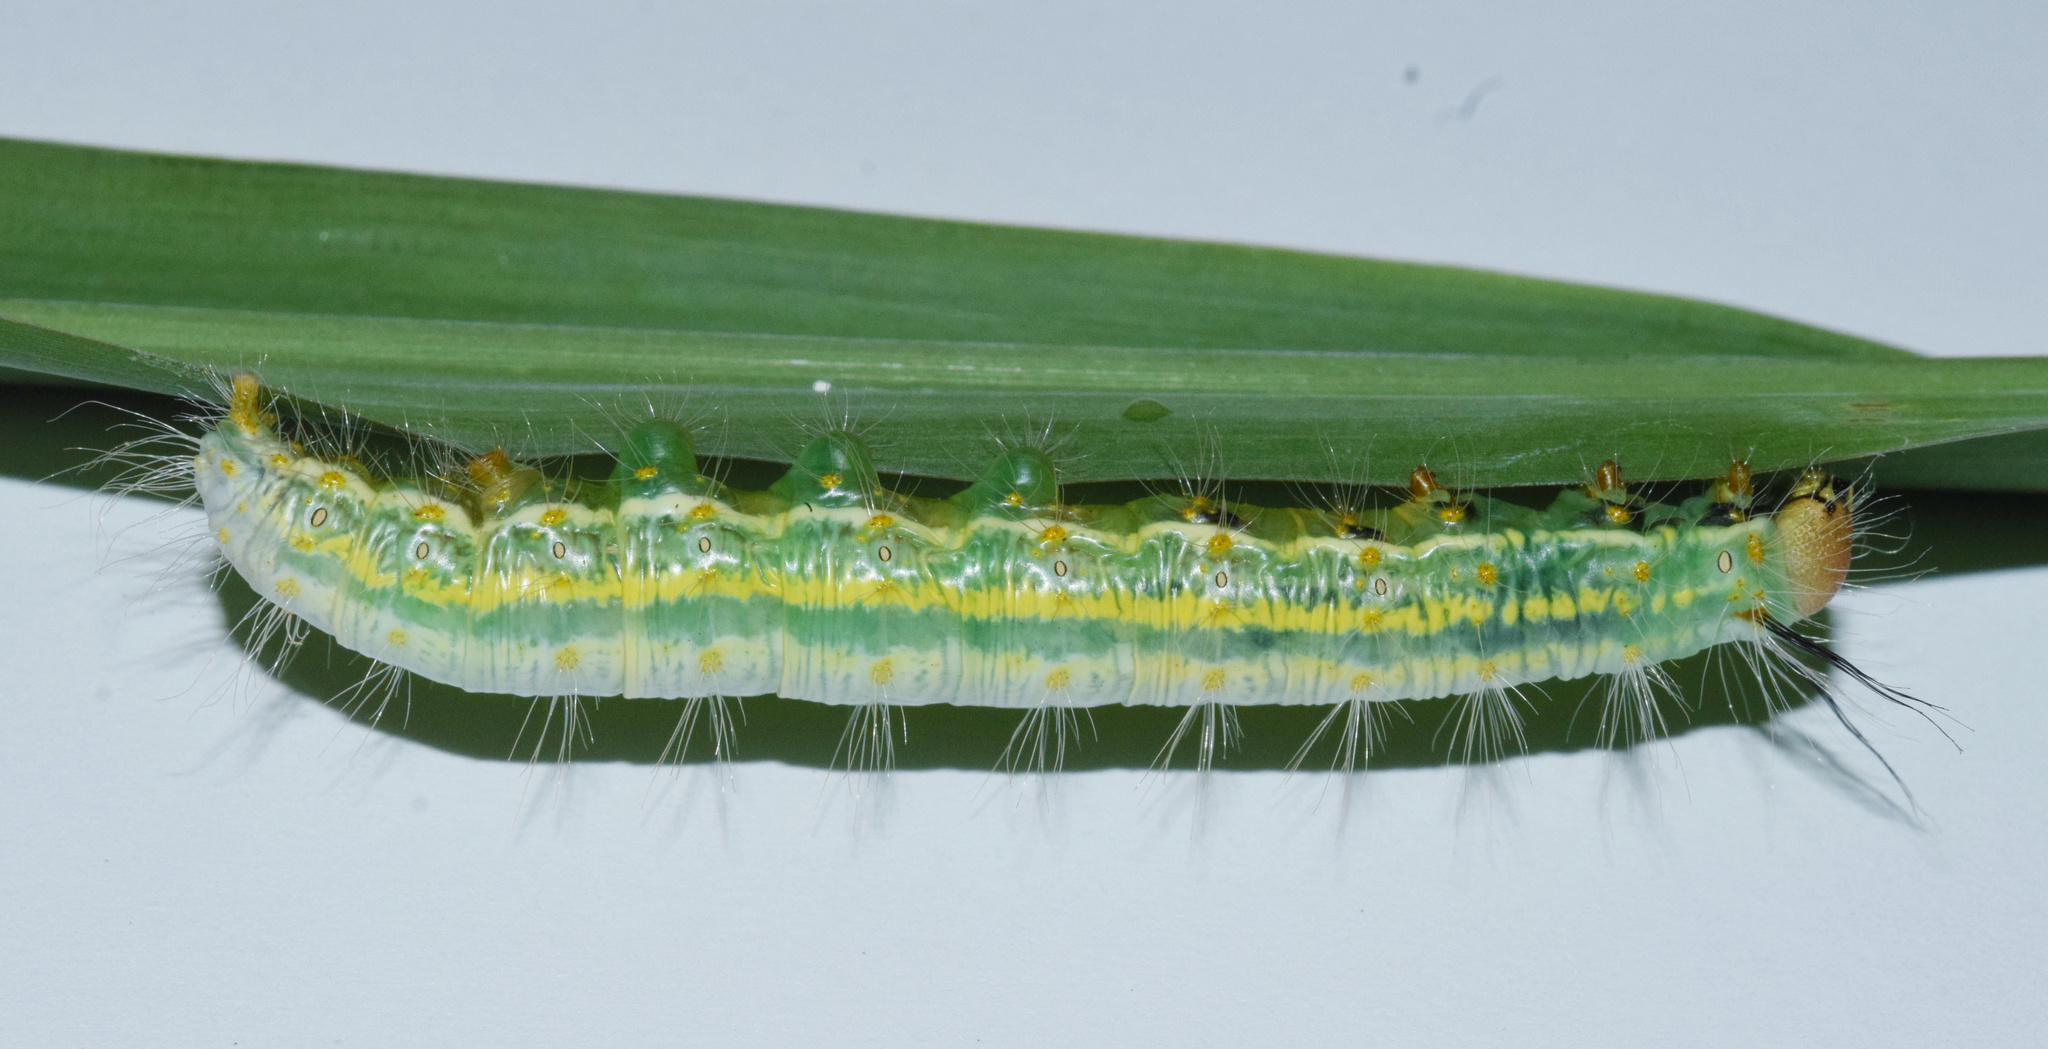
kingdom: Animalia
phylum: Arthropoda
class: Insecta
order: Lepidoptera
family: Notodontidae
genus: Antheua
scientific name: Antheua tricolor
